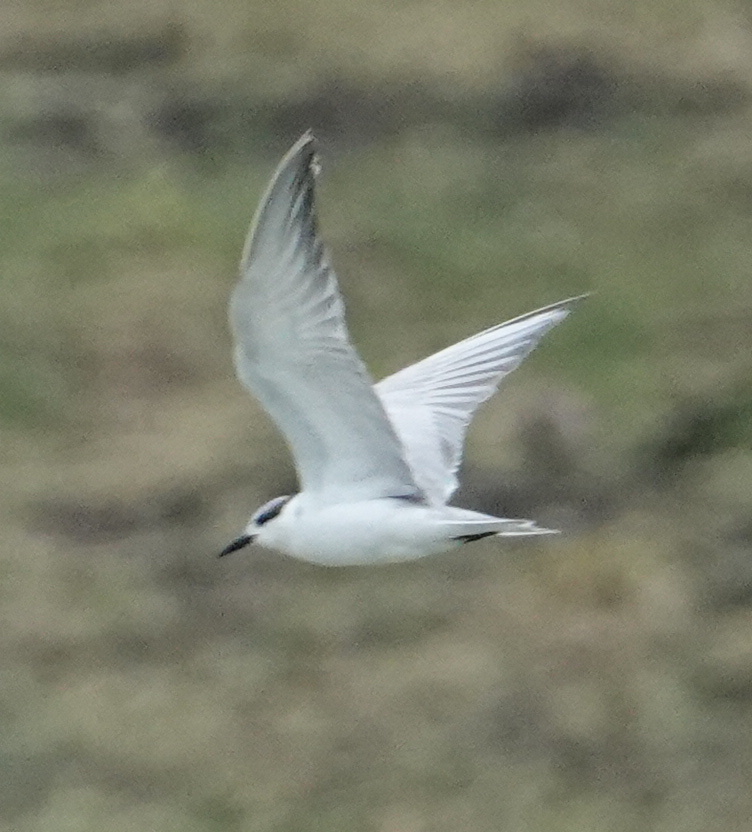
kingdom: Animalia
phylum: Chordata
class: Aves
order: Charadriiformes
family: Laridae
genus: Chlidonias
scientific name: Chlidonias hybrida
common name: Whiskered tern
